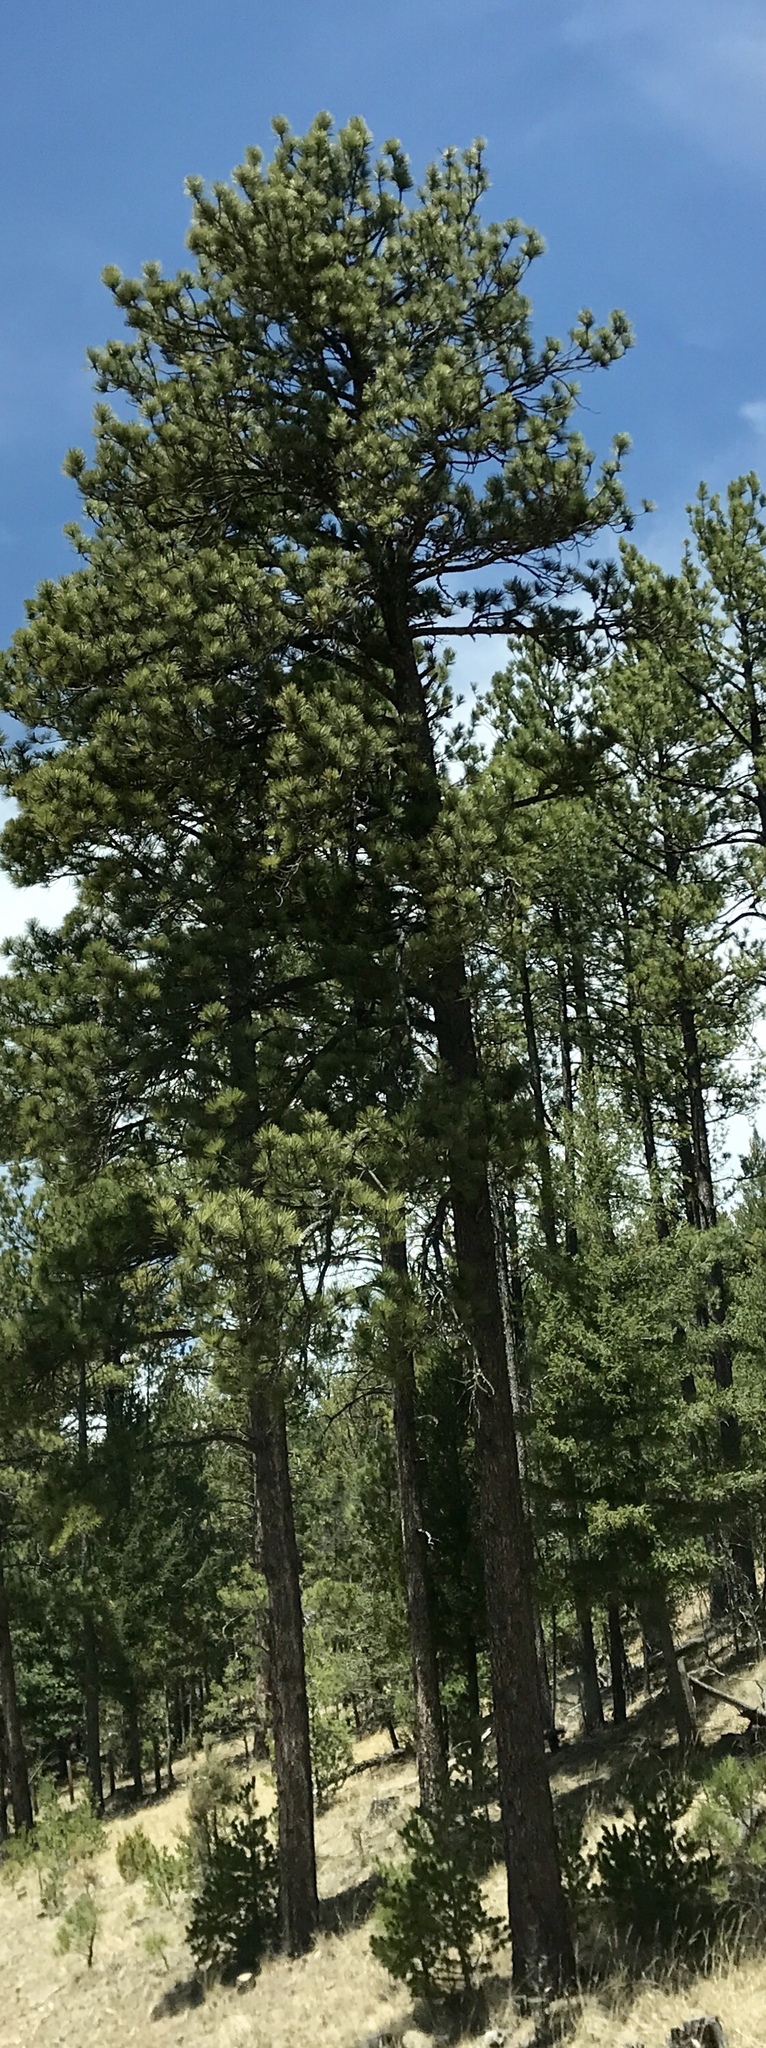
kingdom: Plantae
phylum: Tracheophyta
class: Pinopsida
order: Pinales
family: Pinaceae
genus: Pinus
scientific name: Pinus strobiformis
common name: Southwestern white pine
